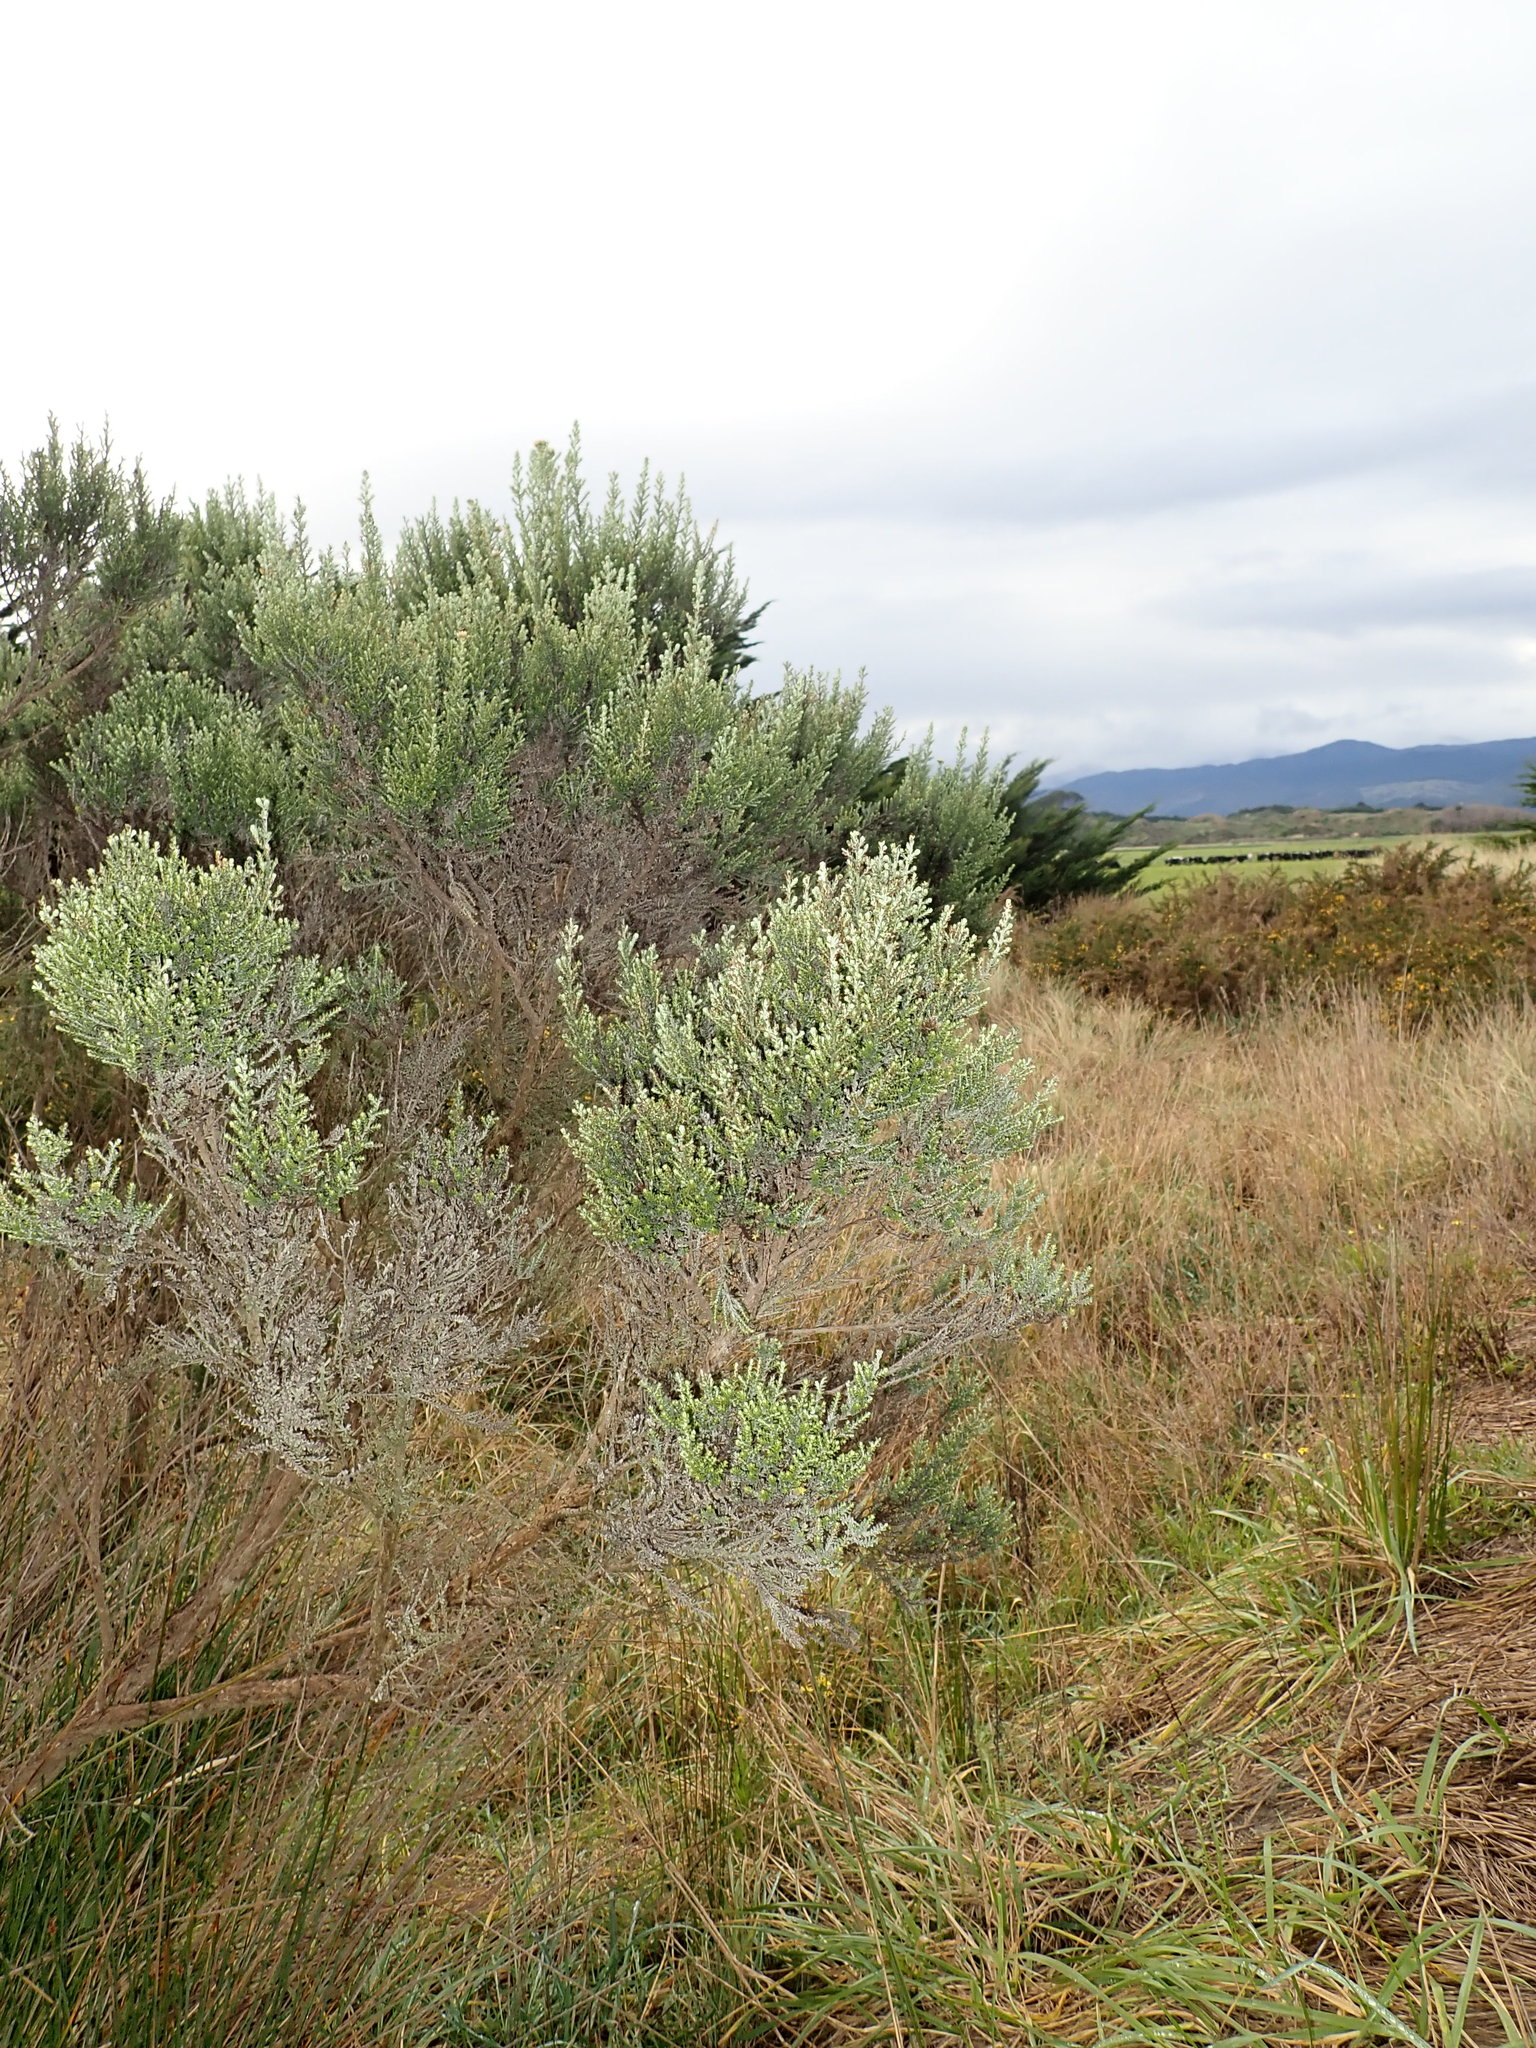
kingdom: Plantae
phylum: Tracheophyta
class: Magnoliopsida
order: Asterales
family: Asteraceae
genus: Ozothamnus
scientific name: Ozothamnus leptophyllus
